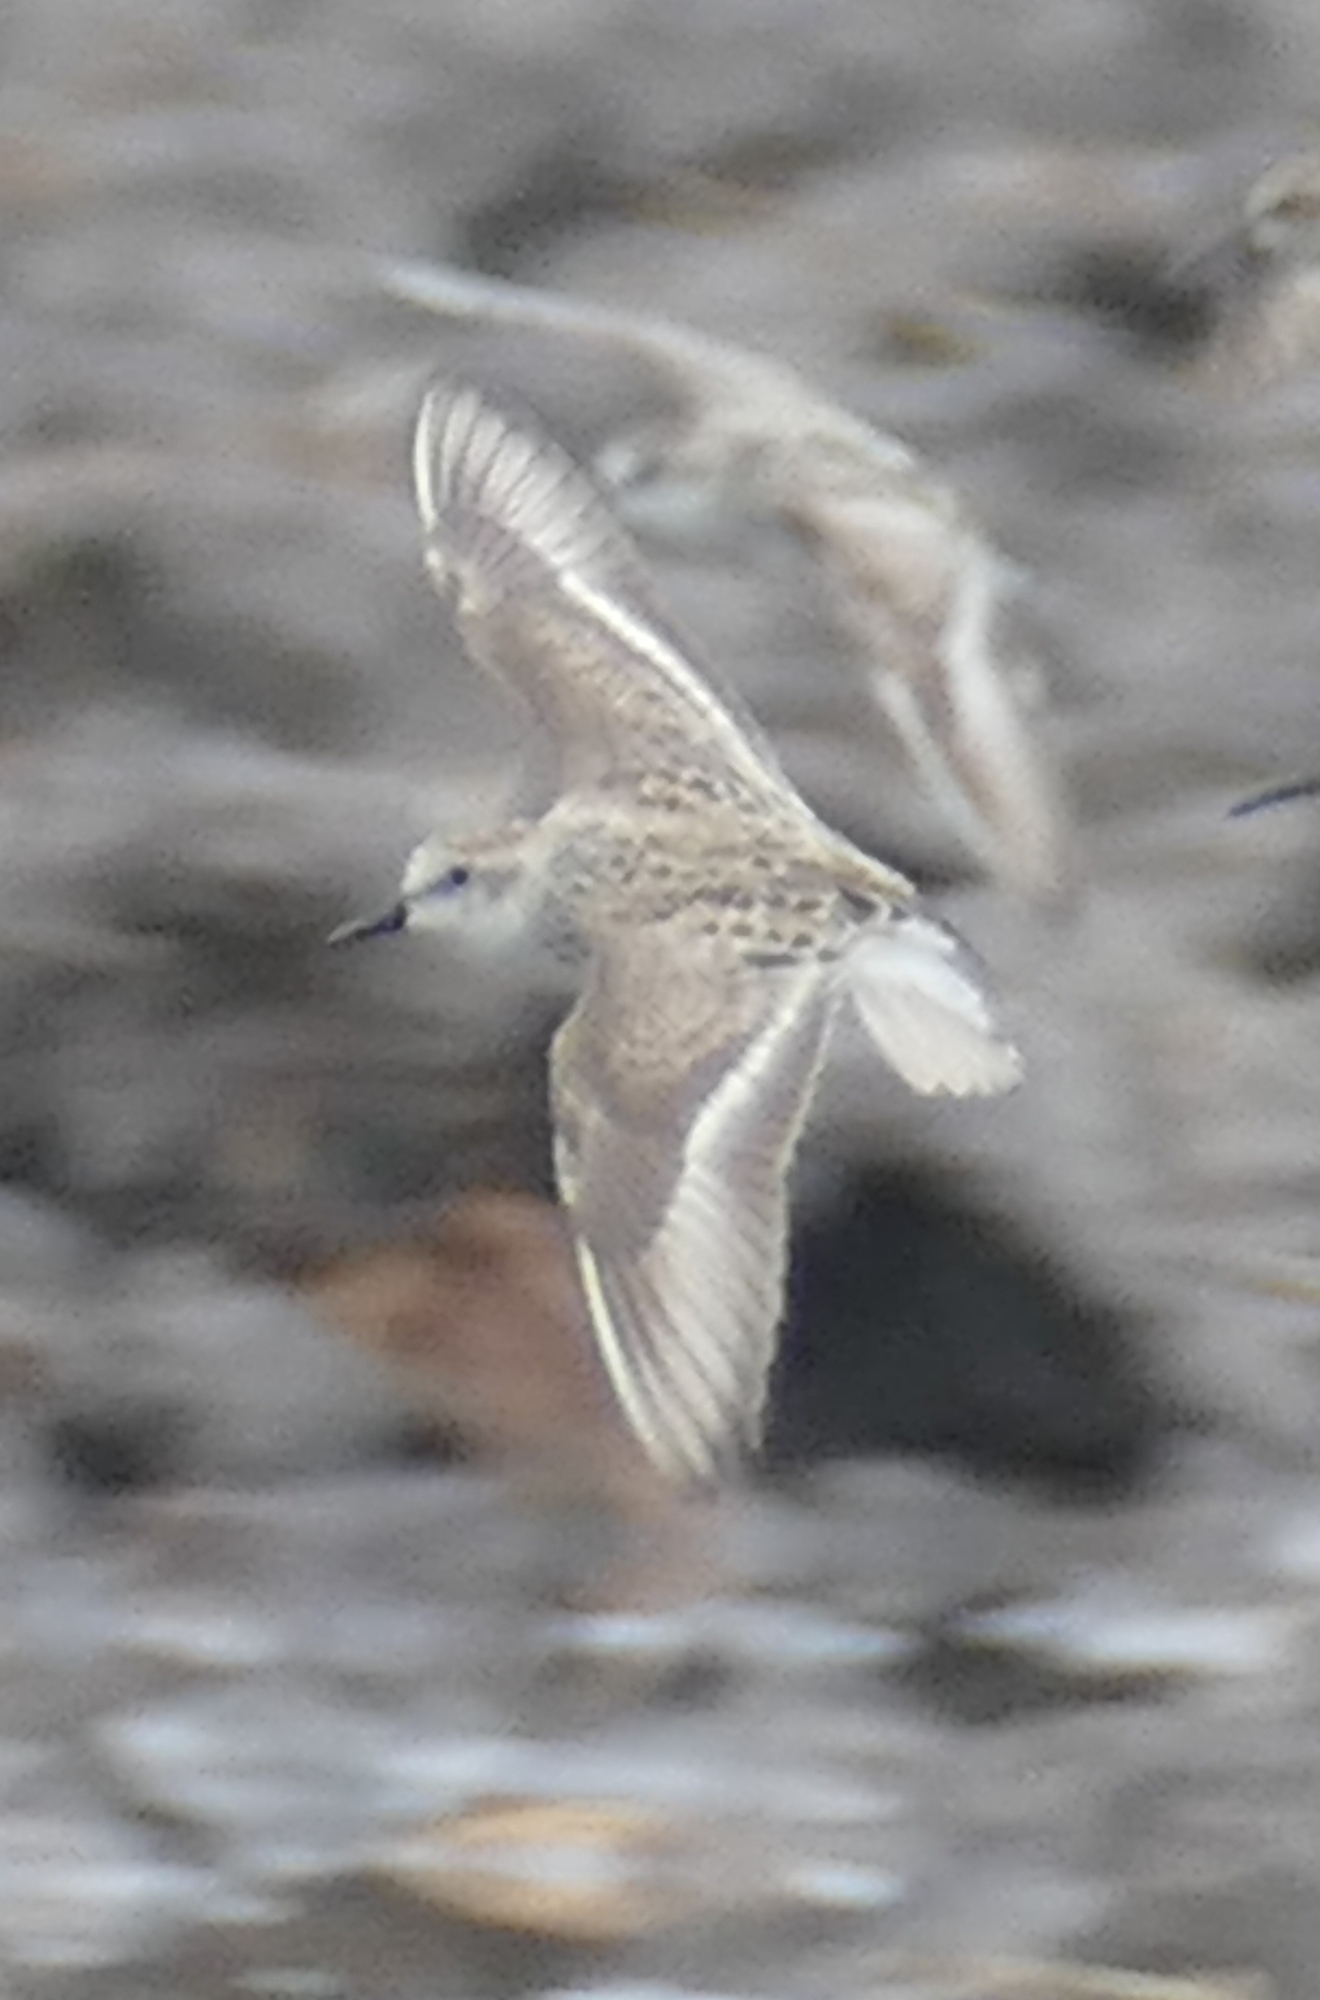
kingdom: Animalia
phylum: Chordata
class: Aves
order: Charadriiformes
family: Scolopacidae
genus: Calidris
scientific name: Calidris pusilla
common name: Semipalmated sandpiper
